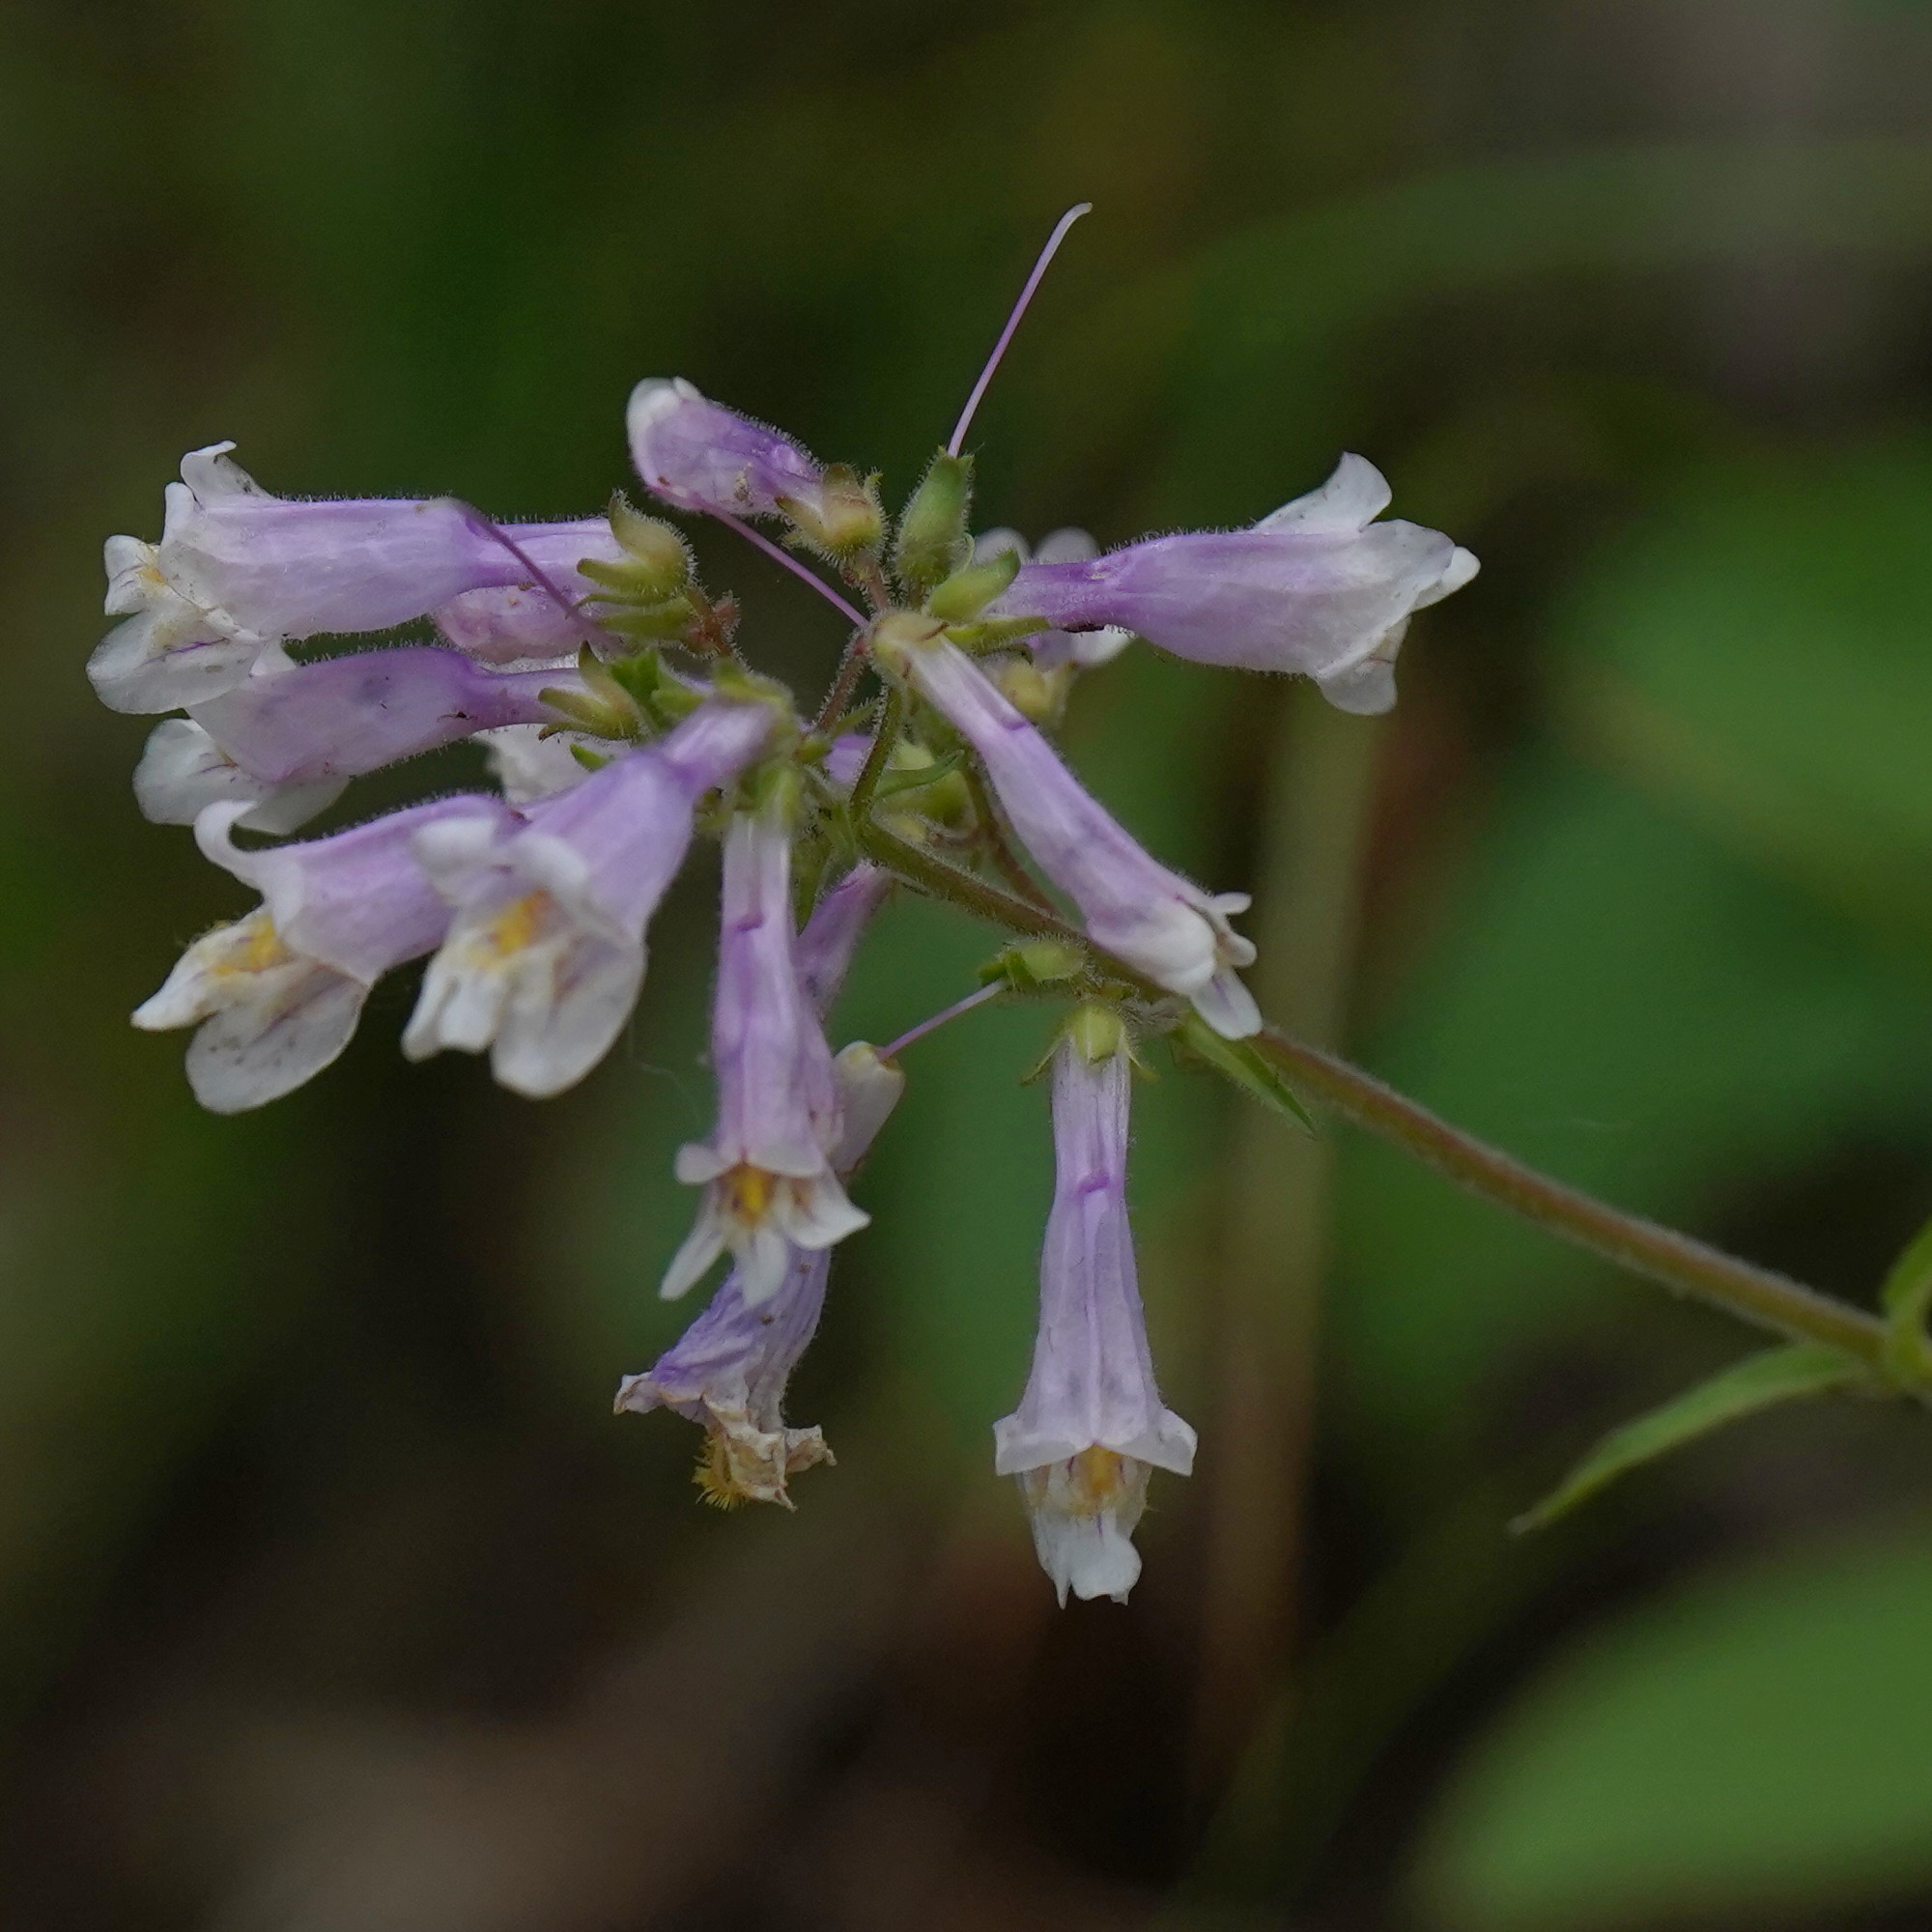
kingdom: Plantae
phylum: Tracheophyta
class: Magnoliopsida
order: Lamiales
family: Plantaginaceae
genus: Penstemon
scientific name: Penstemon hirsutus
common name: Hairy beardtongue
